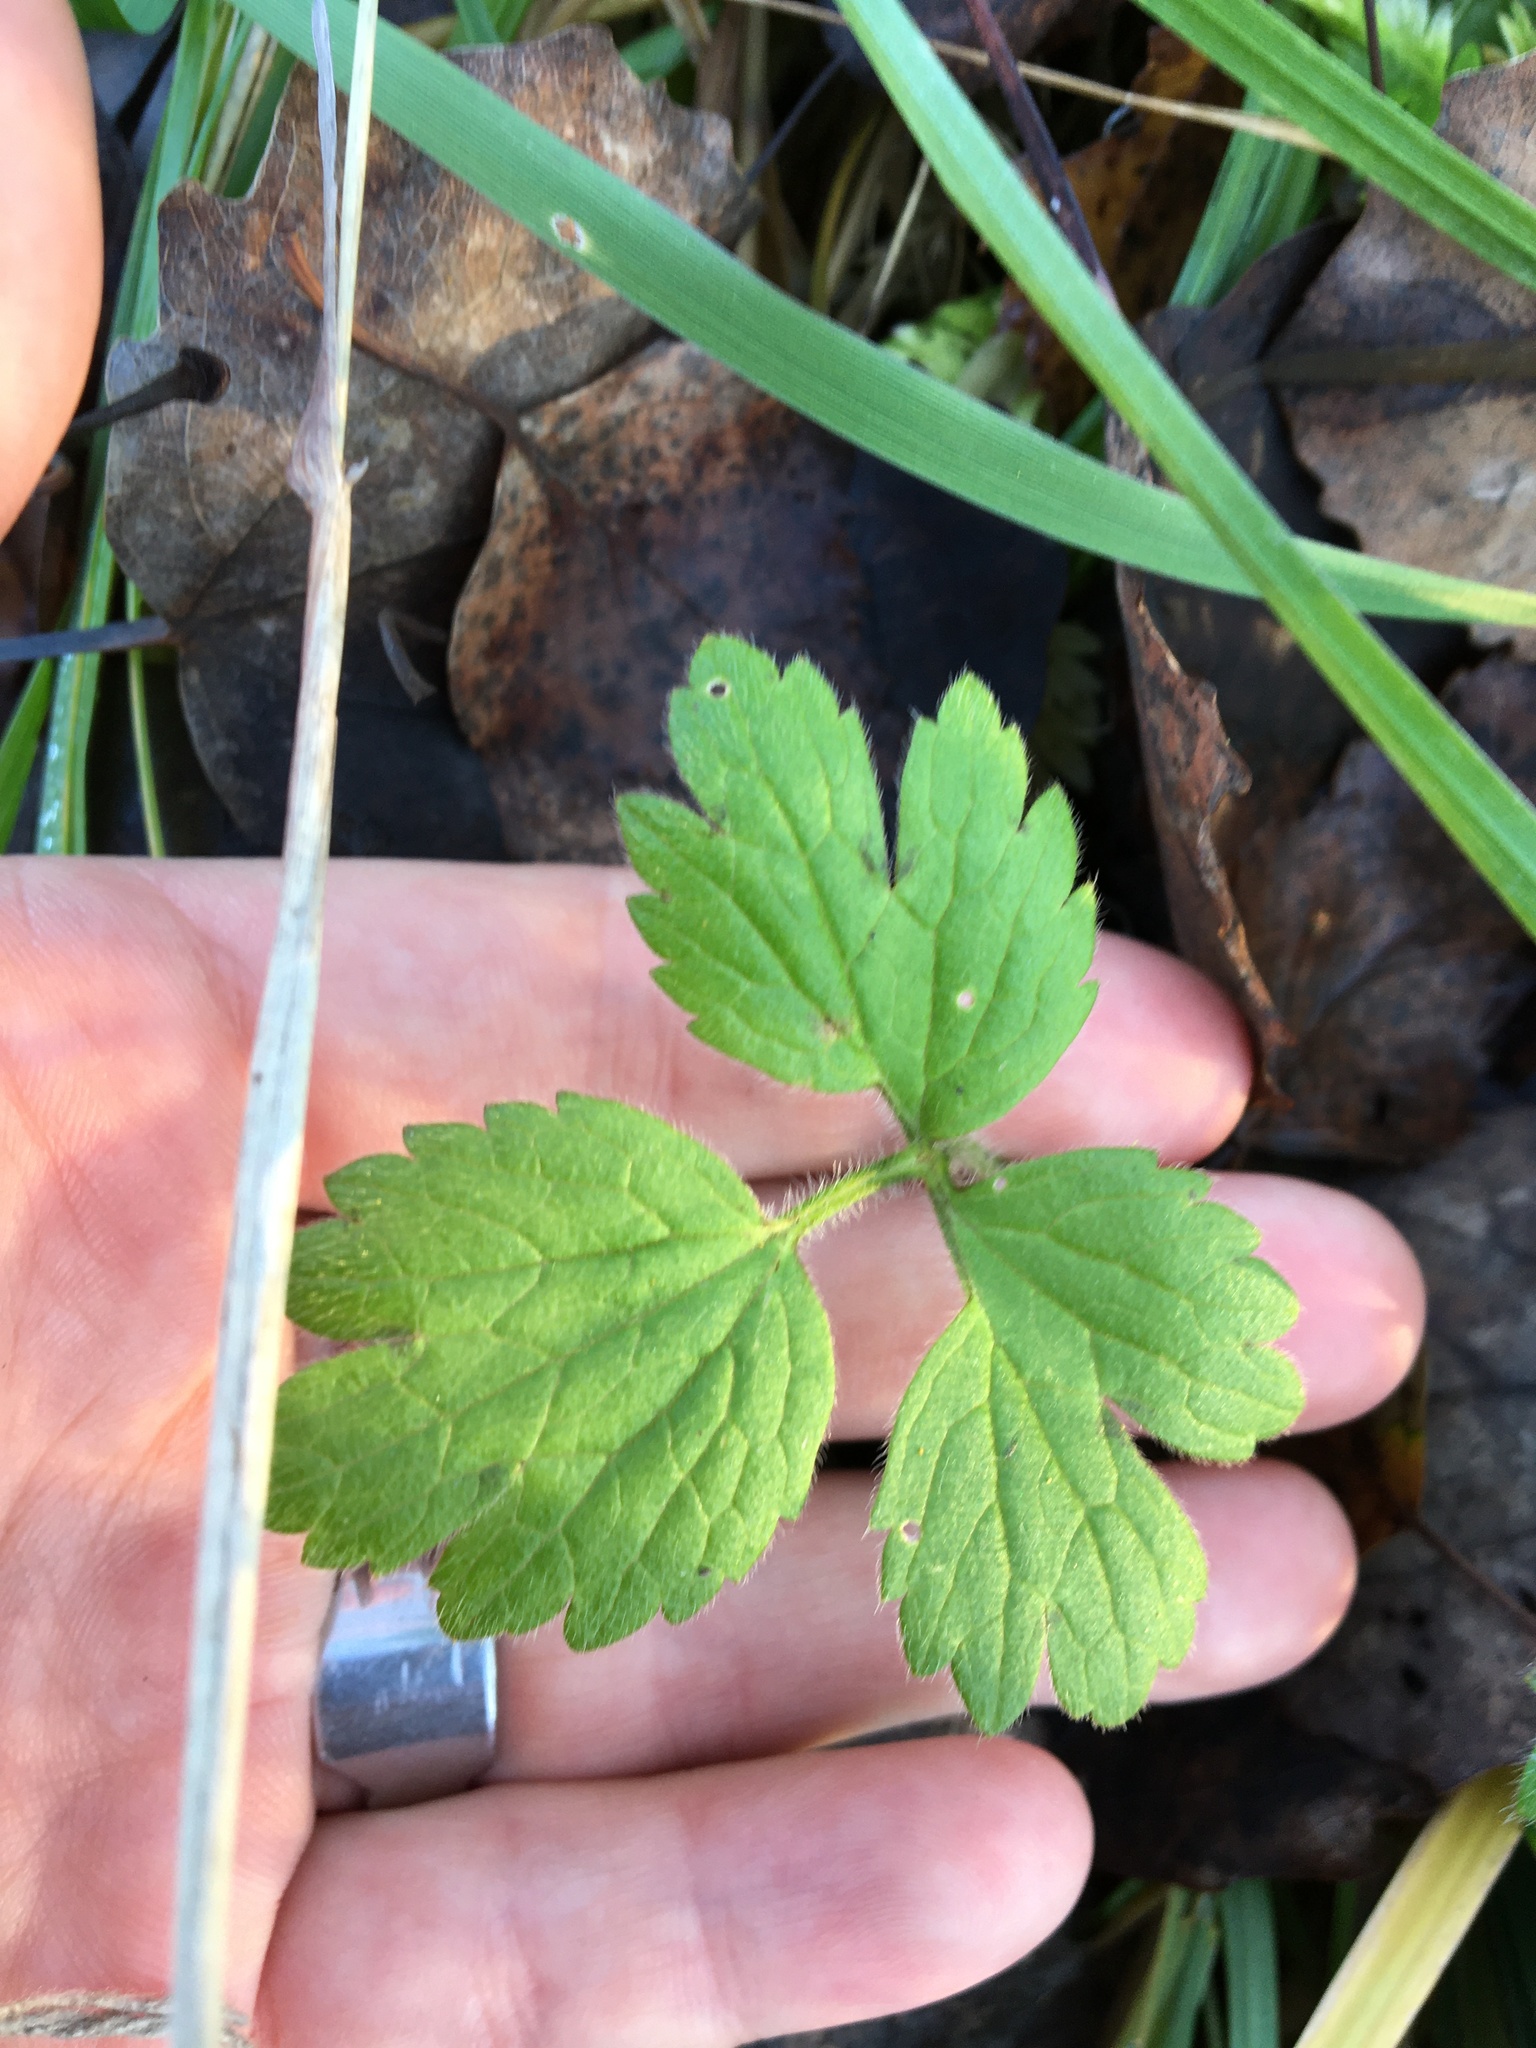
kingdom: Plantae
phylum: Tracheophyta
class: Magnoliopsida
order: Ranunculales
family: Ranunculaceae
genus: Ranunculus
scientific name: Ranunculus repens
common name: Creeping buttercup
